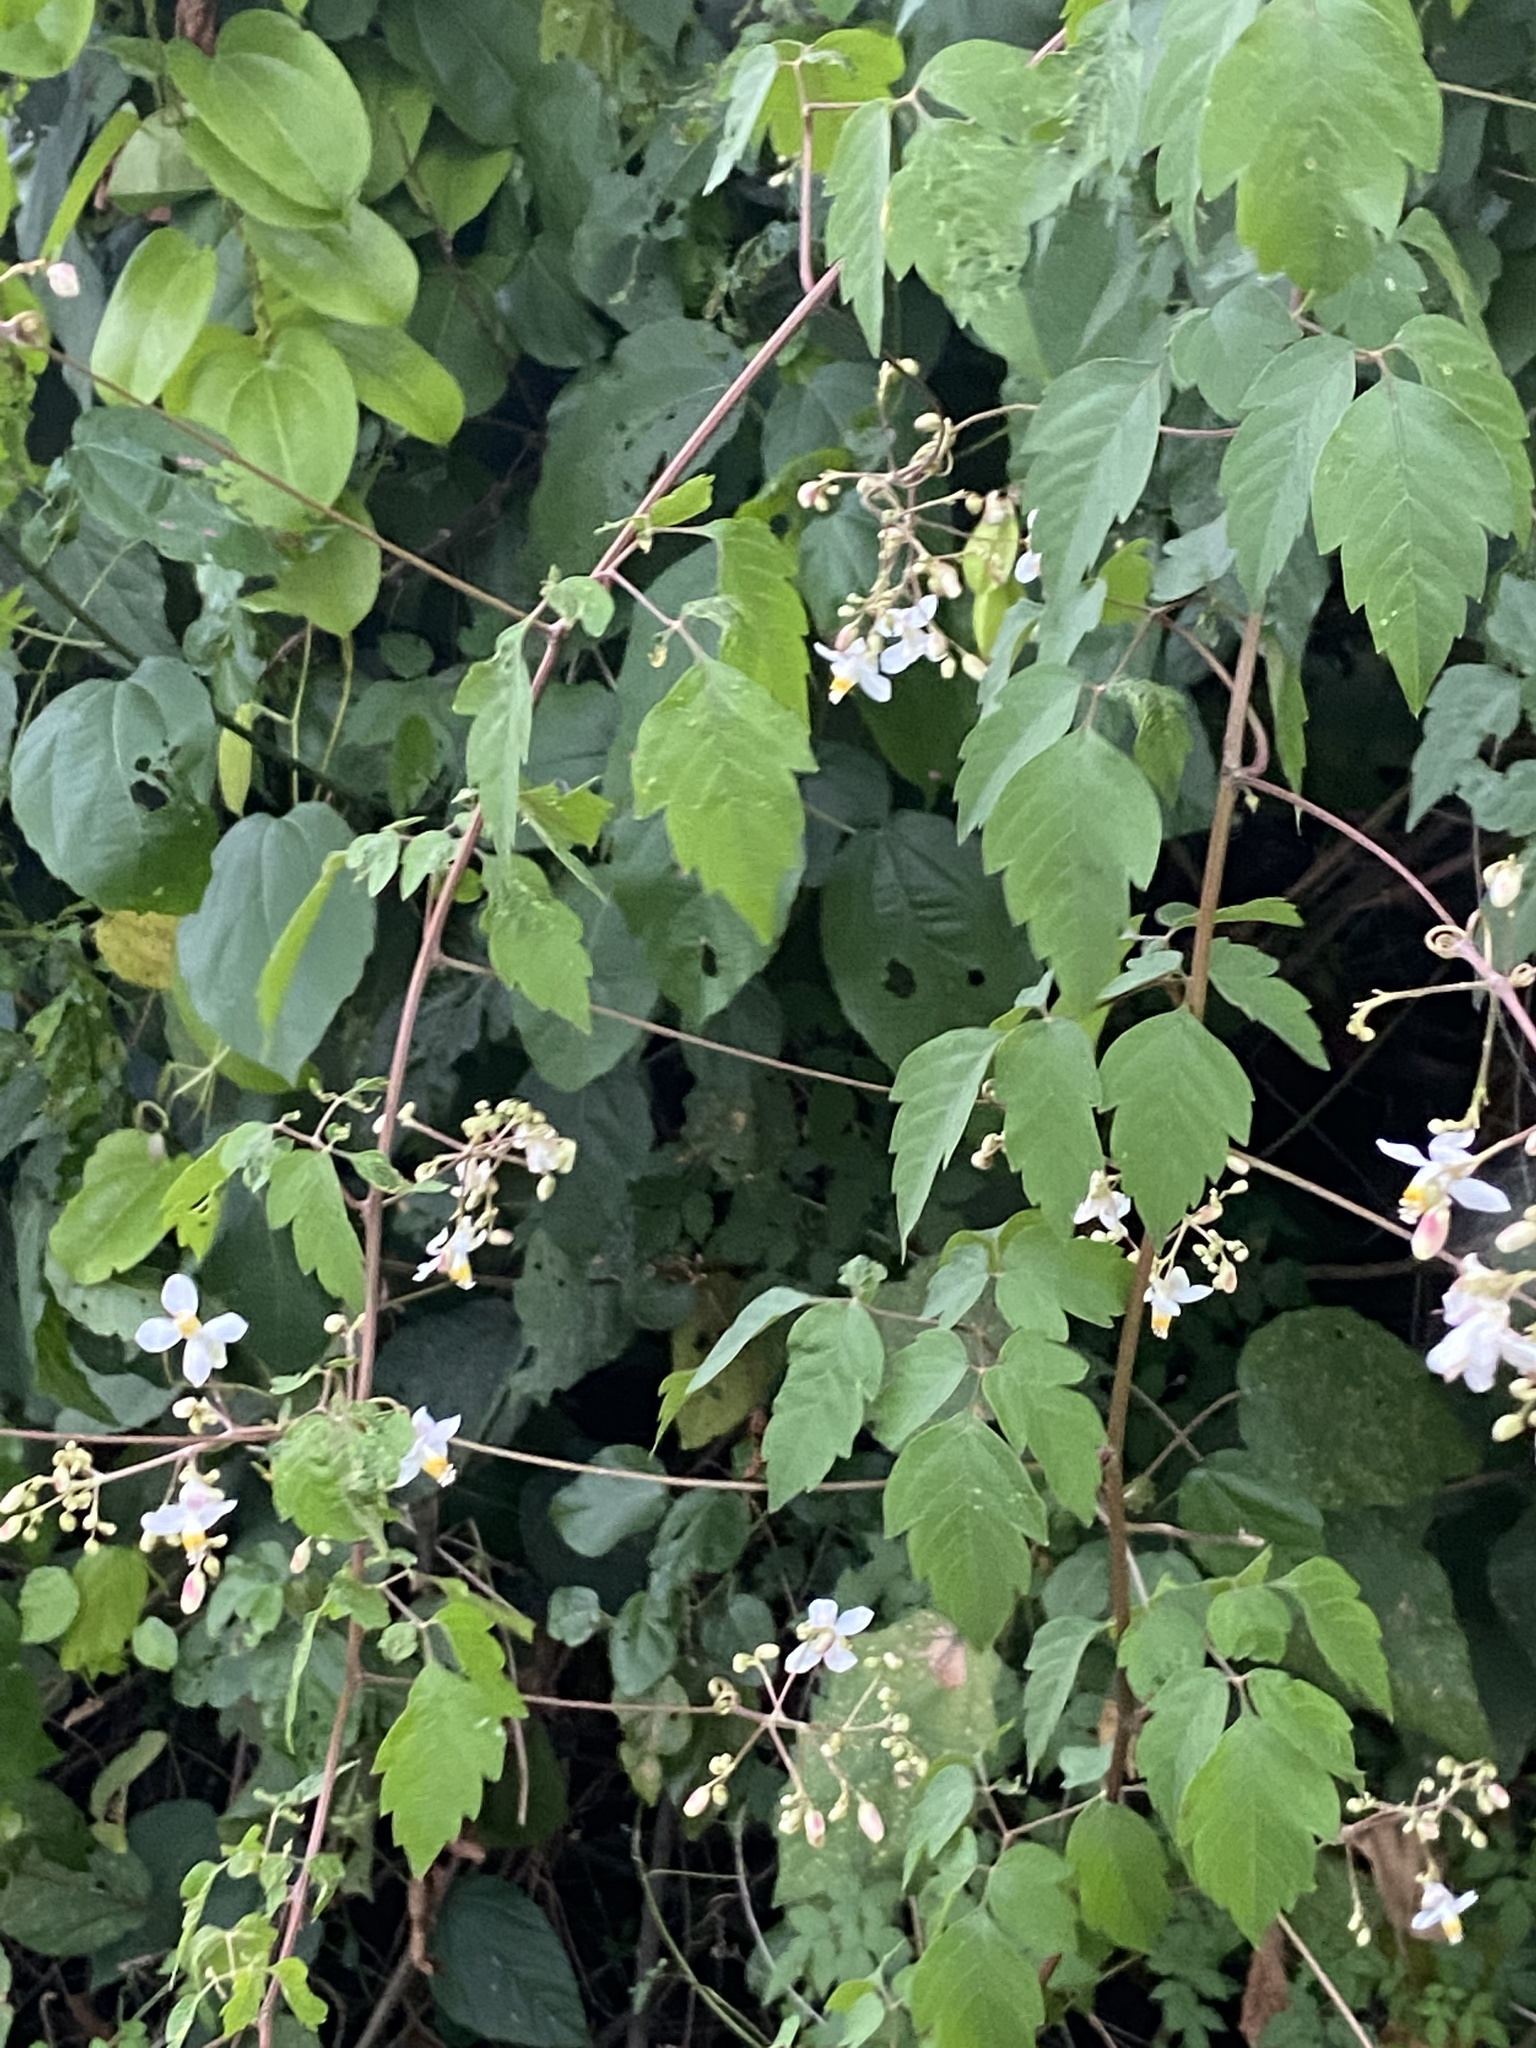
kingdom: Plantae
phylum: Tracheophyta
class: Magnoliopsida
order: Sapindales
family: Sapindaceae
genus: Cardiospermum
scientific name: Cardiospermum grandiflorum
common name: Balloon vine
